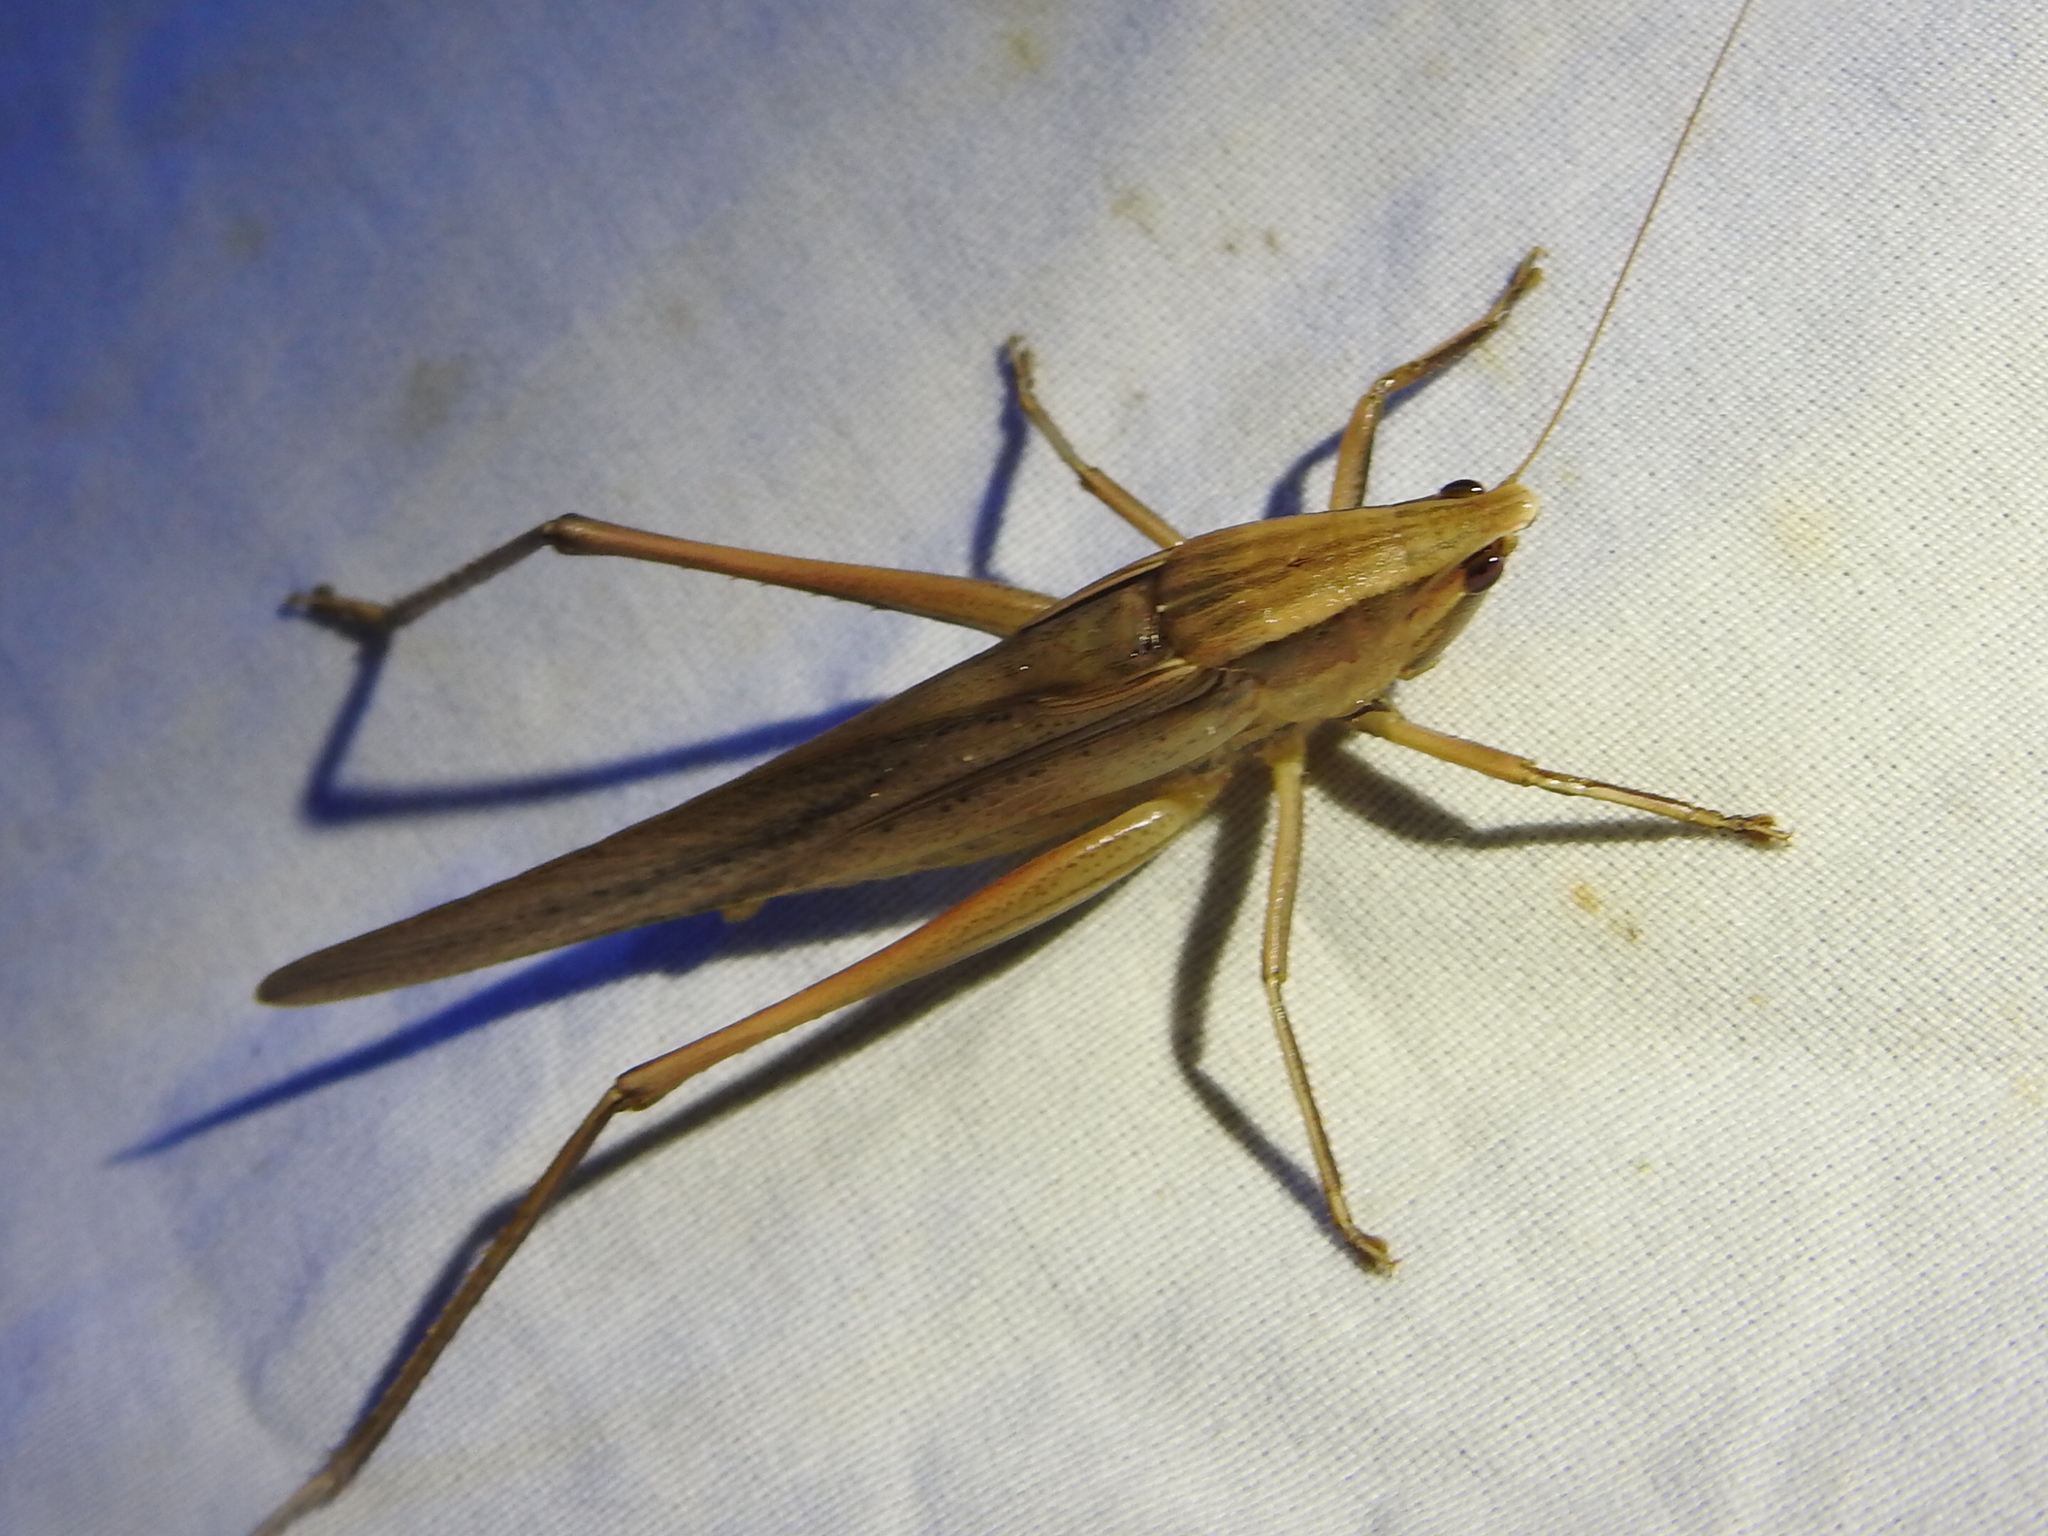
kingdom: Animalia
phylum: Arthropoda
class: Insecta
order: Orthoptera
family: Tettigoniidae
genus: Neoconocephalus
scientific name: Neoconocephalus triops
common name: Broad-tipped conehead
